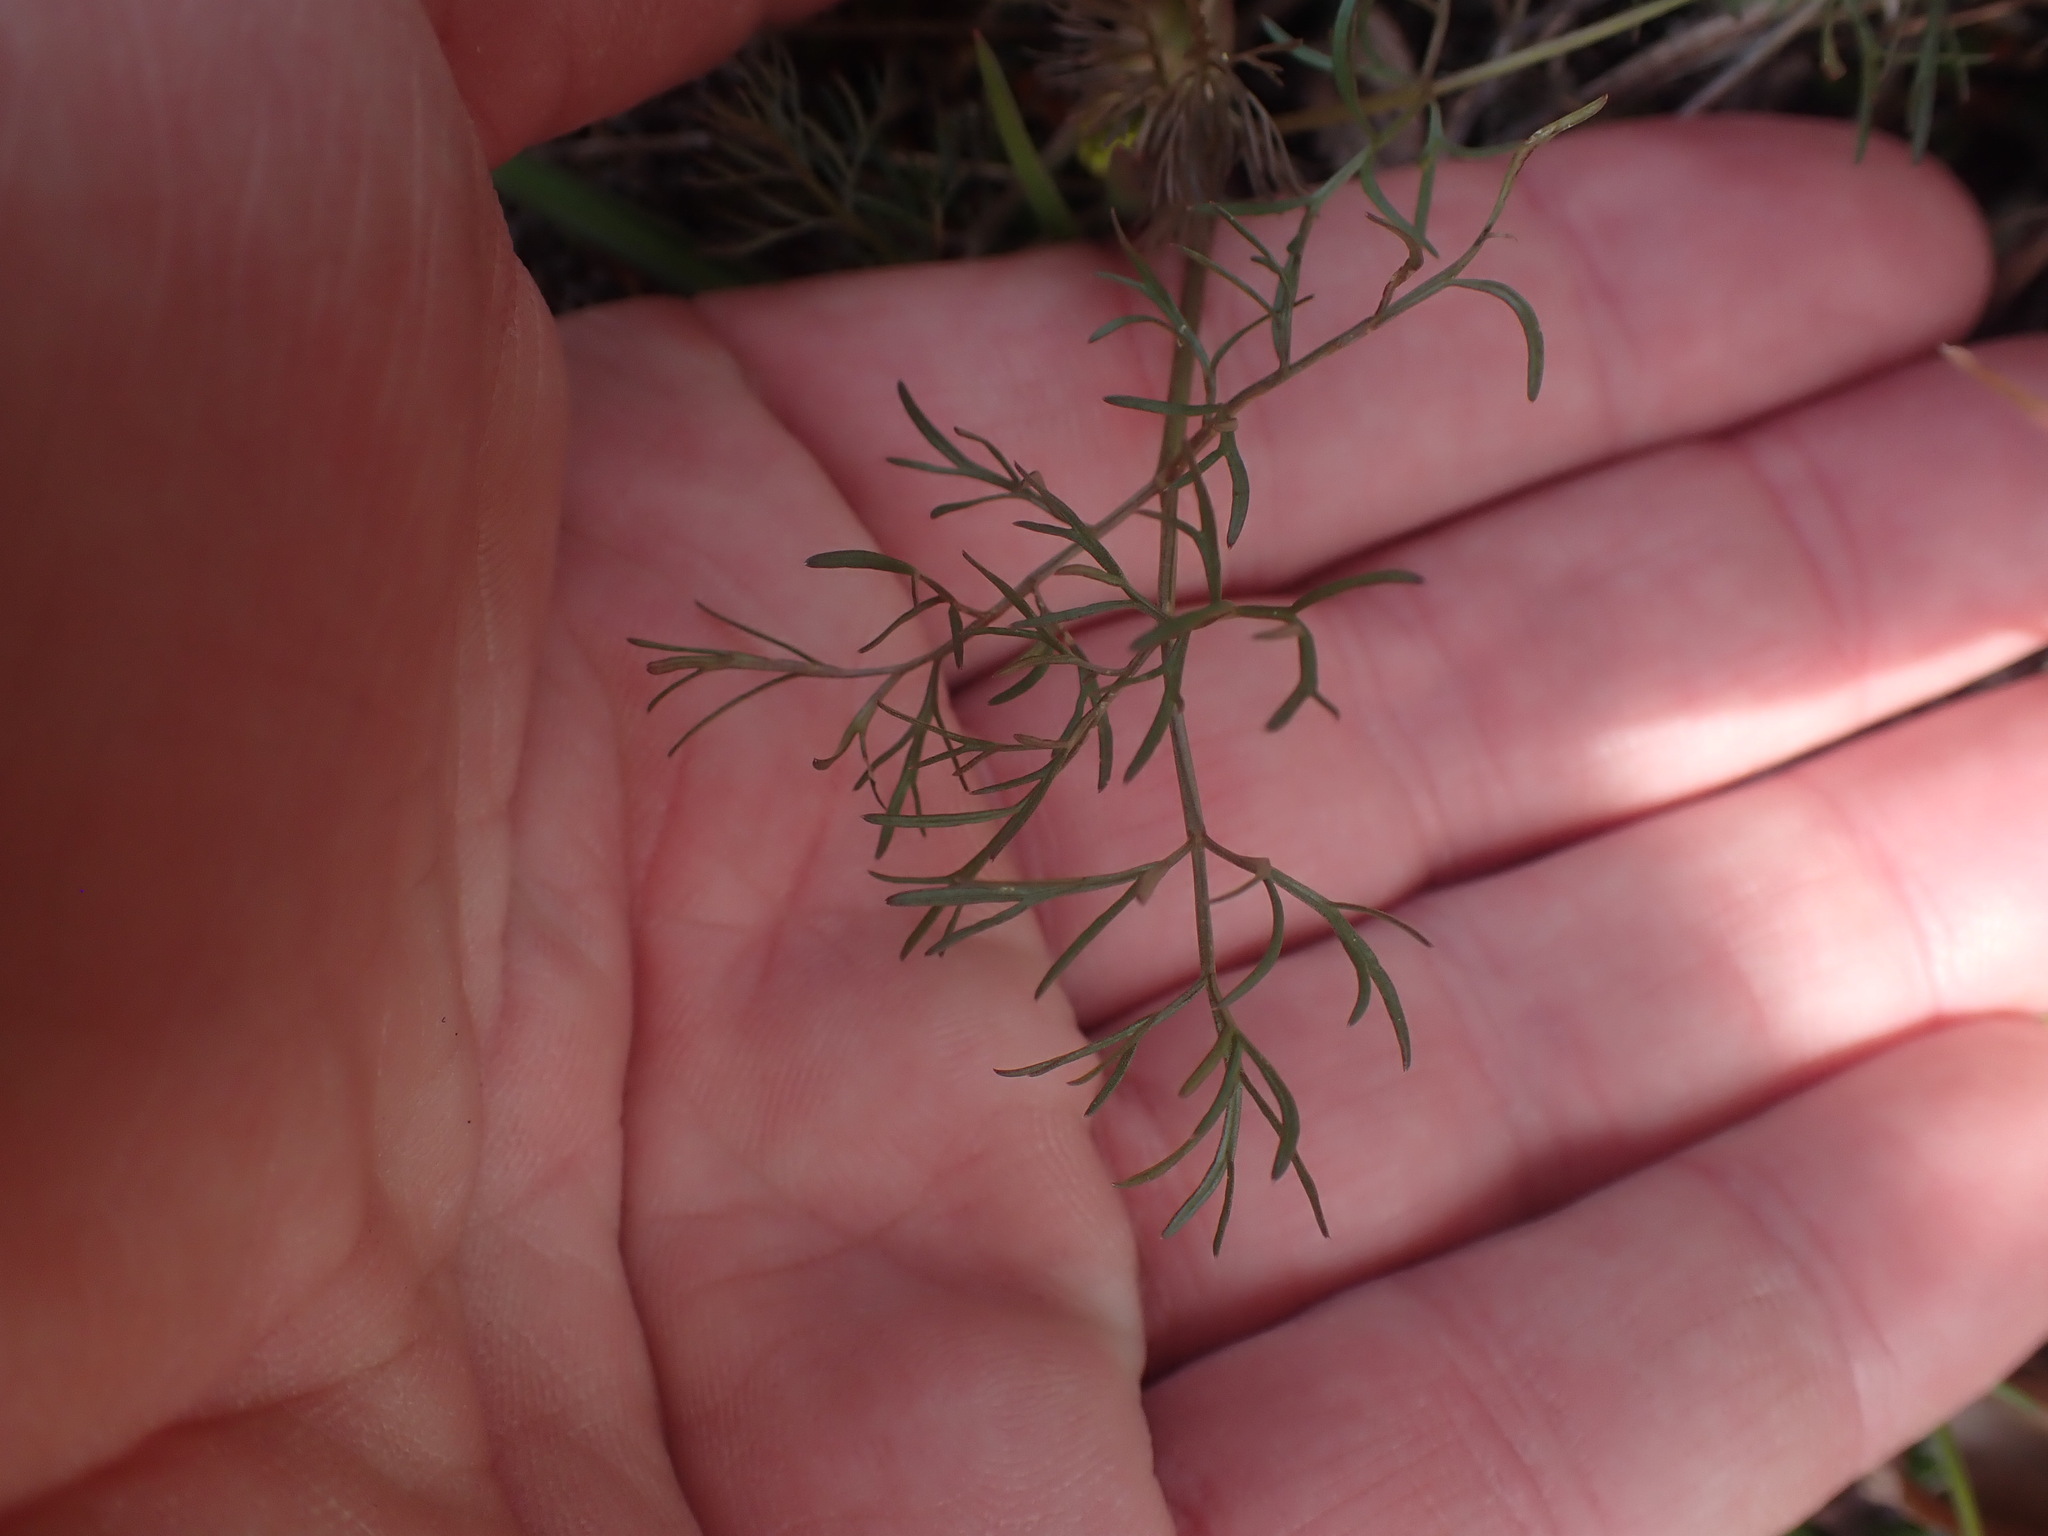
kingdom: Plantae
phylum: Tracheophyta
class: Magnoliopsida
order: Apiales
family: Apiaceae
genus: Lomatium
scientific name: Lomatium utriculatum
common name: Fine-leaf desert-parsley
